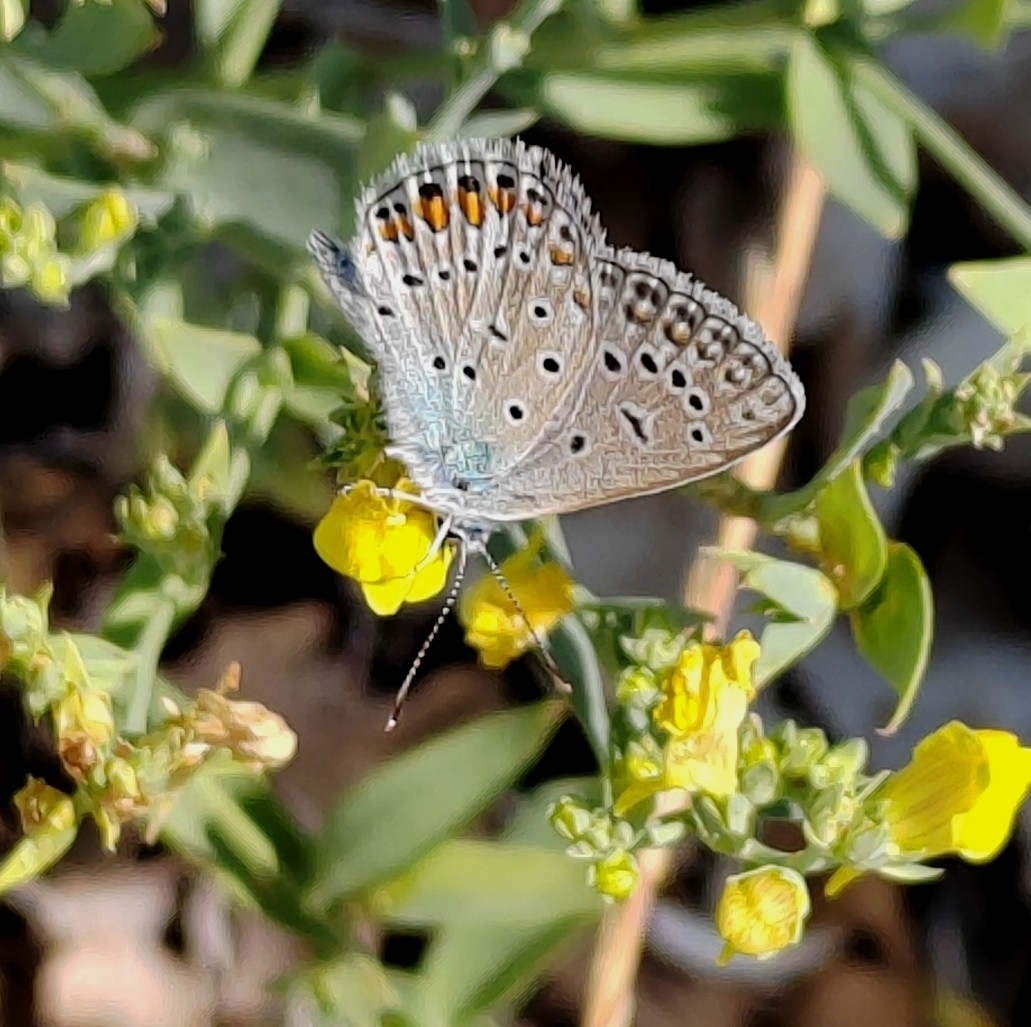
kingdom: Animalia
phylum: Arthropoda
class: Insecta
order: Lepidoptera
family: Lycaenidae
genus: Polyommatus
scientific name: Polyommatus icarus
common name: Common blue
